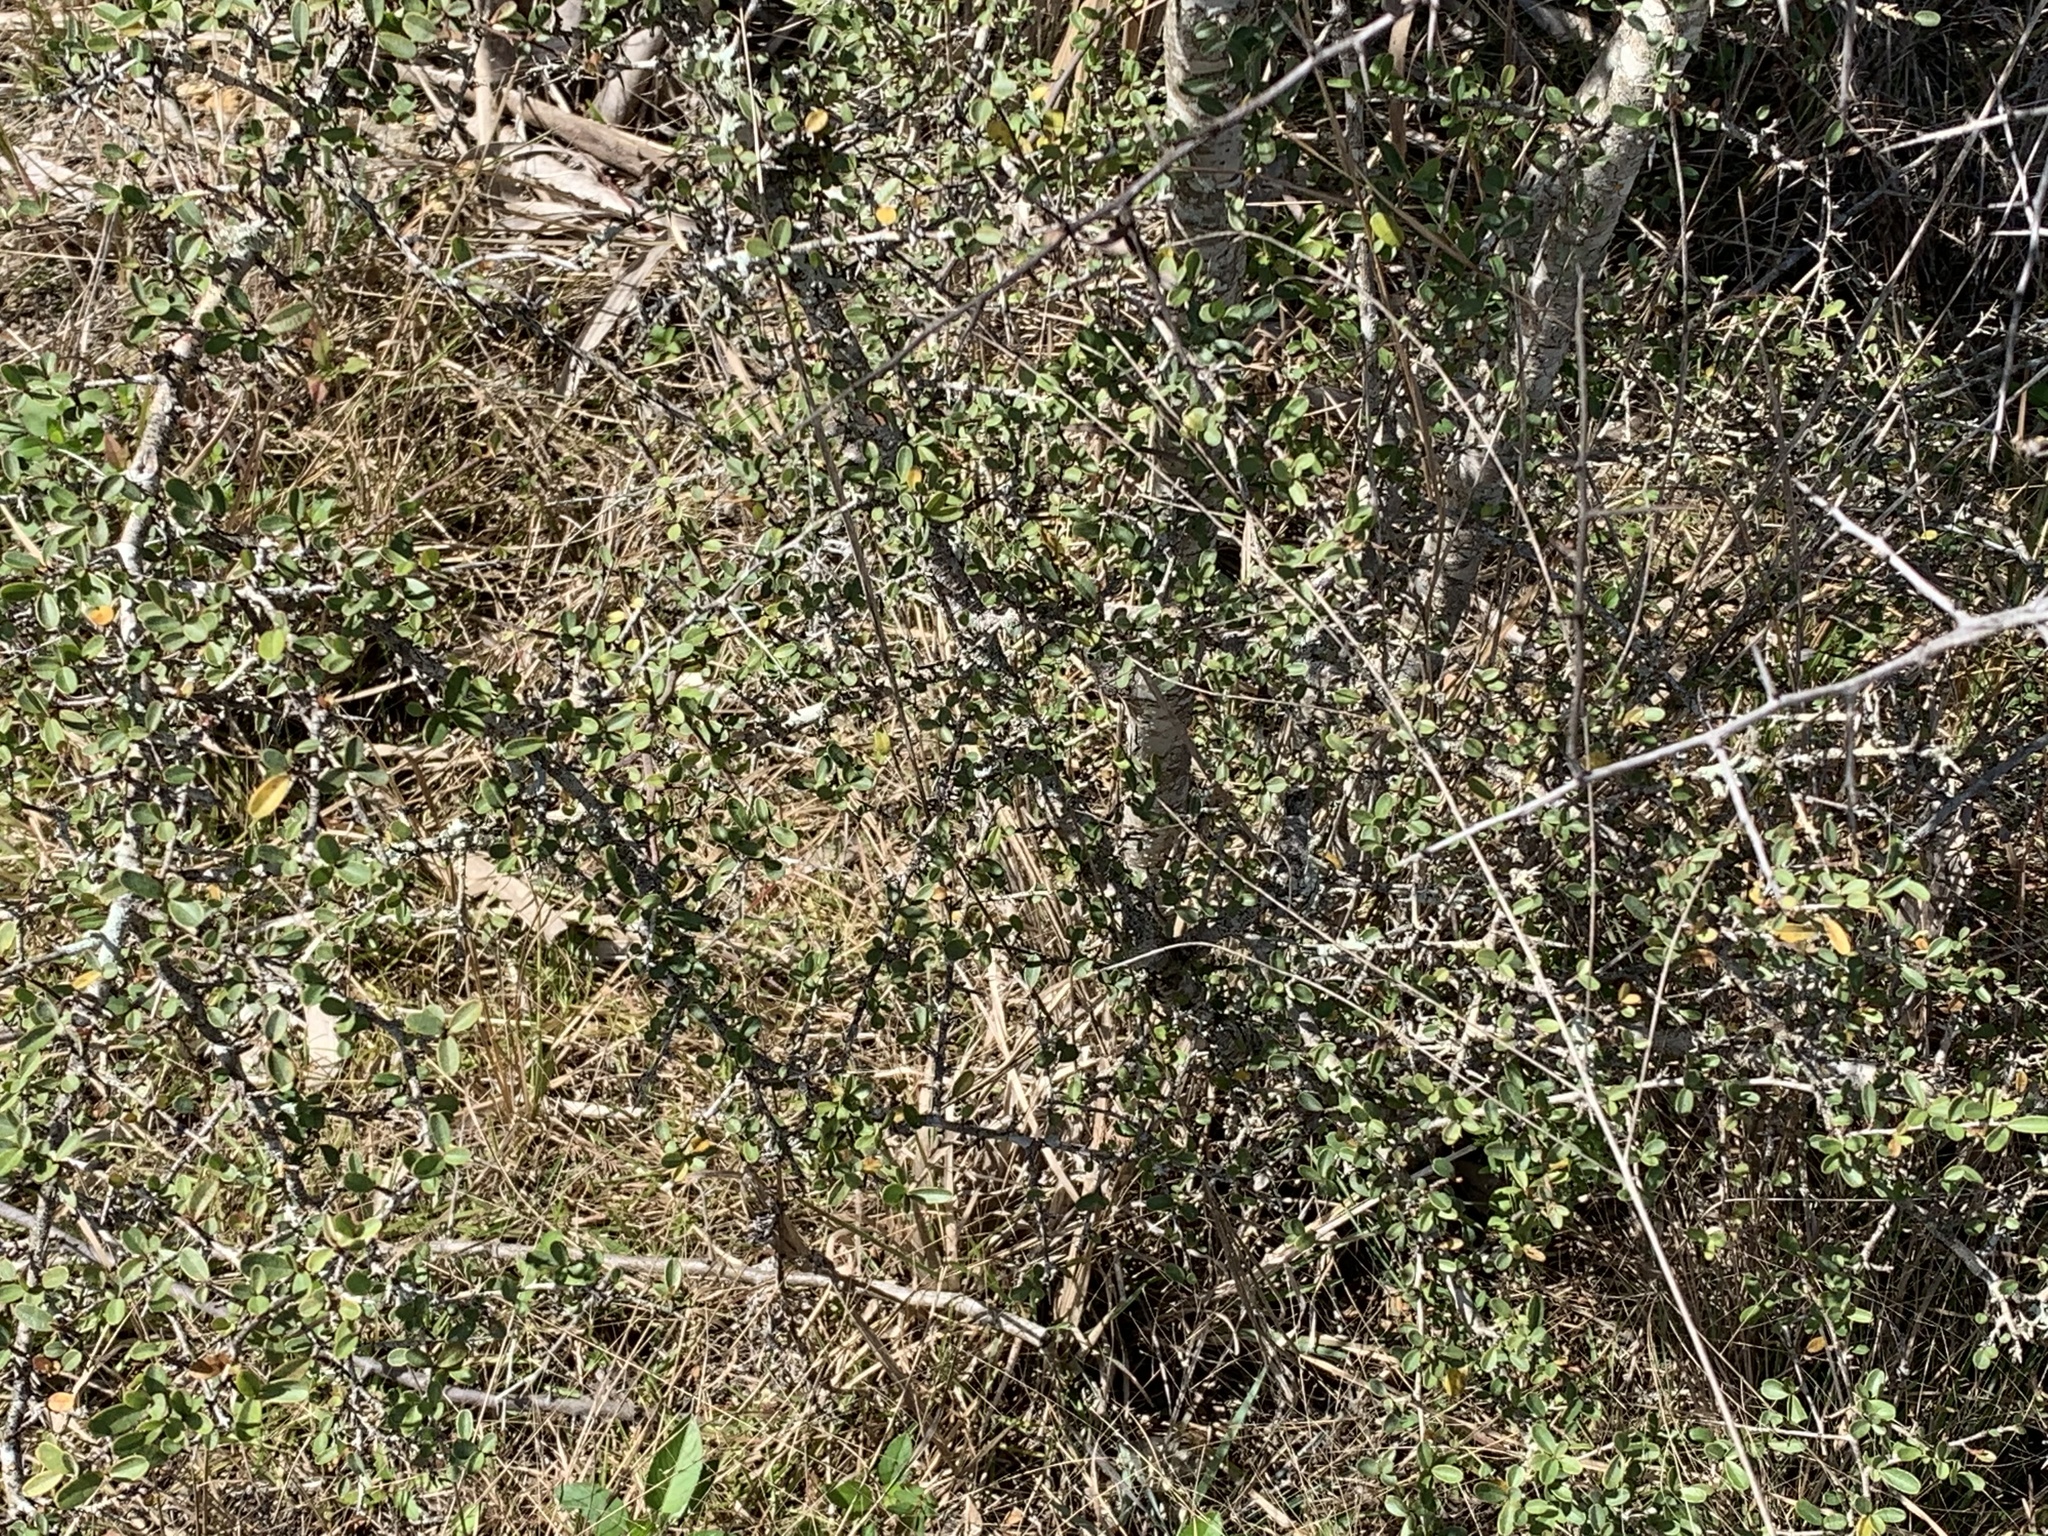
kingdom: Plantae
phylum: Tracheophyta
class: Magnoliopsida
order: Rosales
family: Rosaceae
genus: Pyracantha
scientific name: Pyracantha koidzumii
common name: Formosa firethorn
